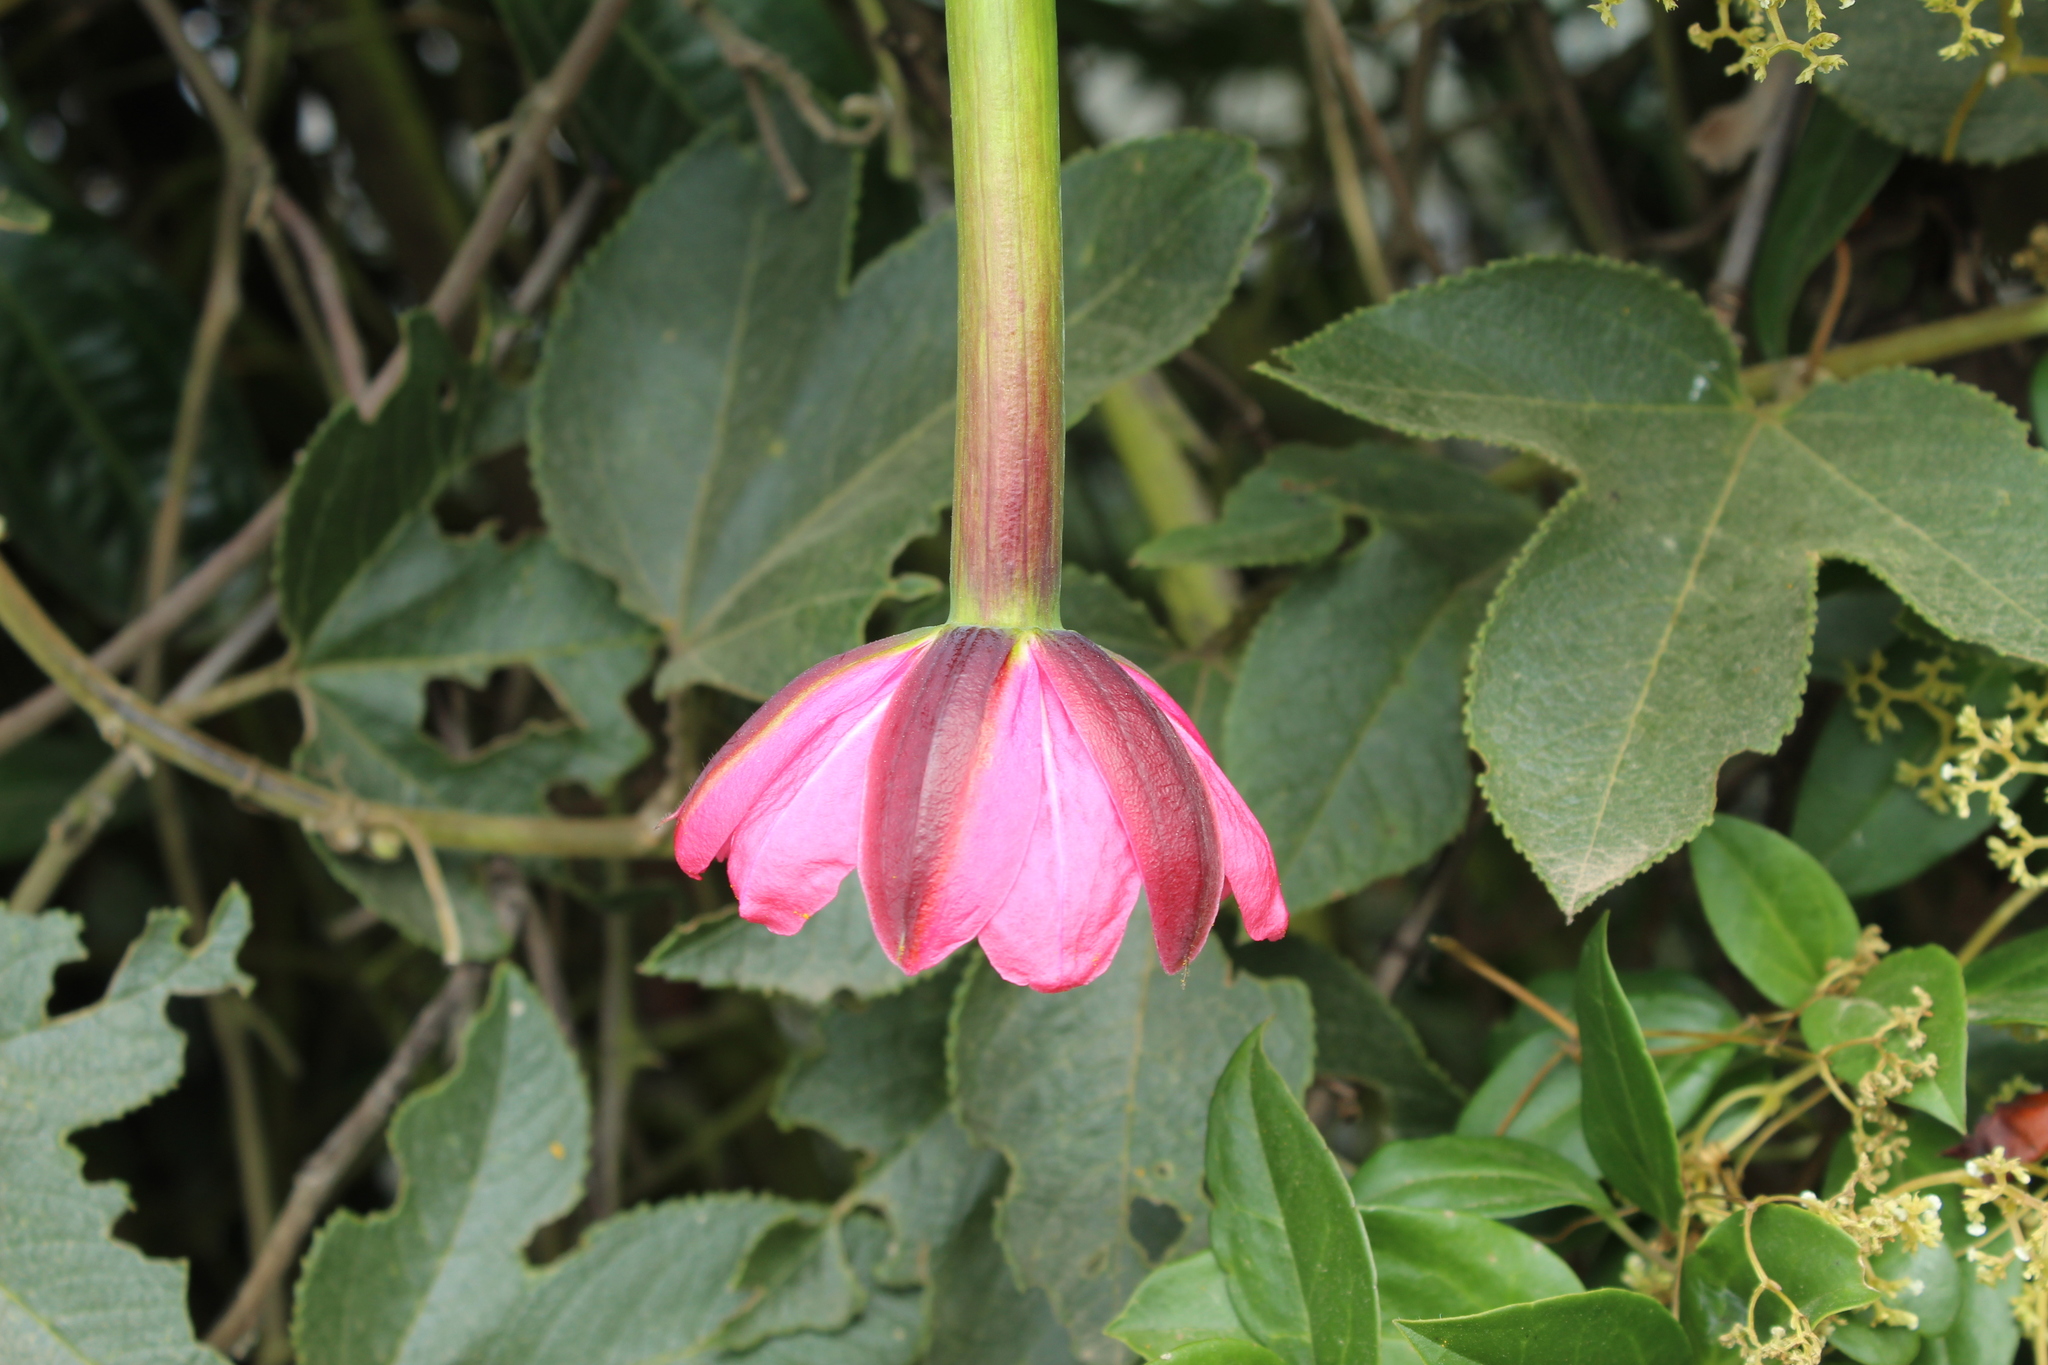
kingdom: Plantae
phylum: Tracheophyta
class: Magnoliopsida
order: Malpighiales
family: Passifloraceae
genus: Passiflora
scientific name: Passiflora tripartita
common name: Banana poka
